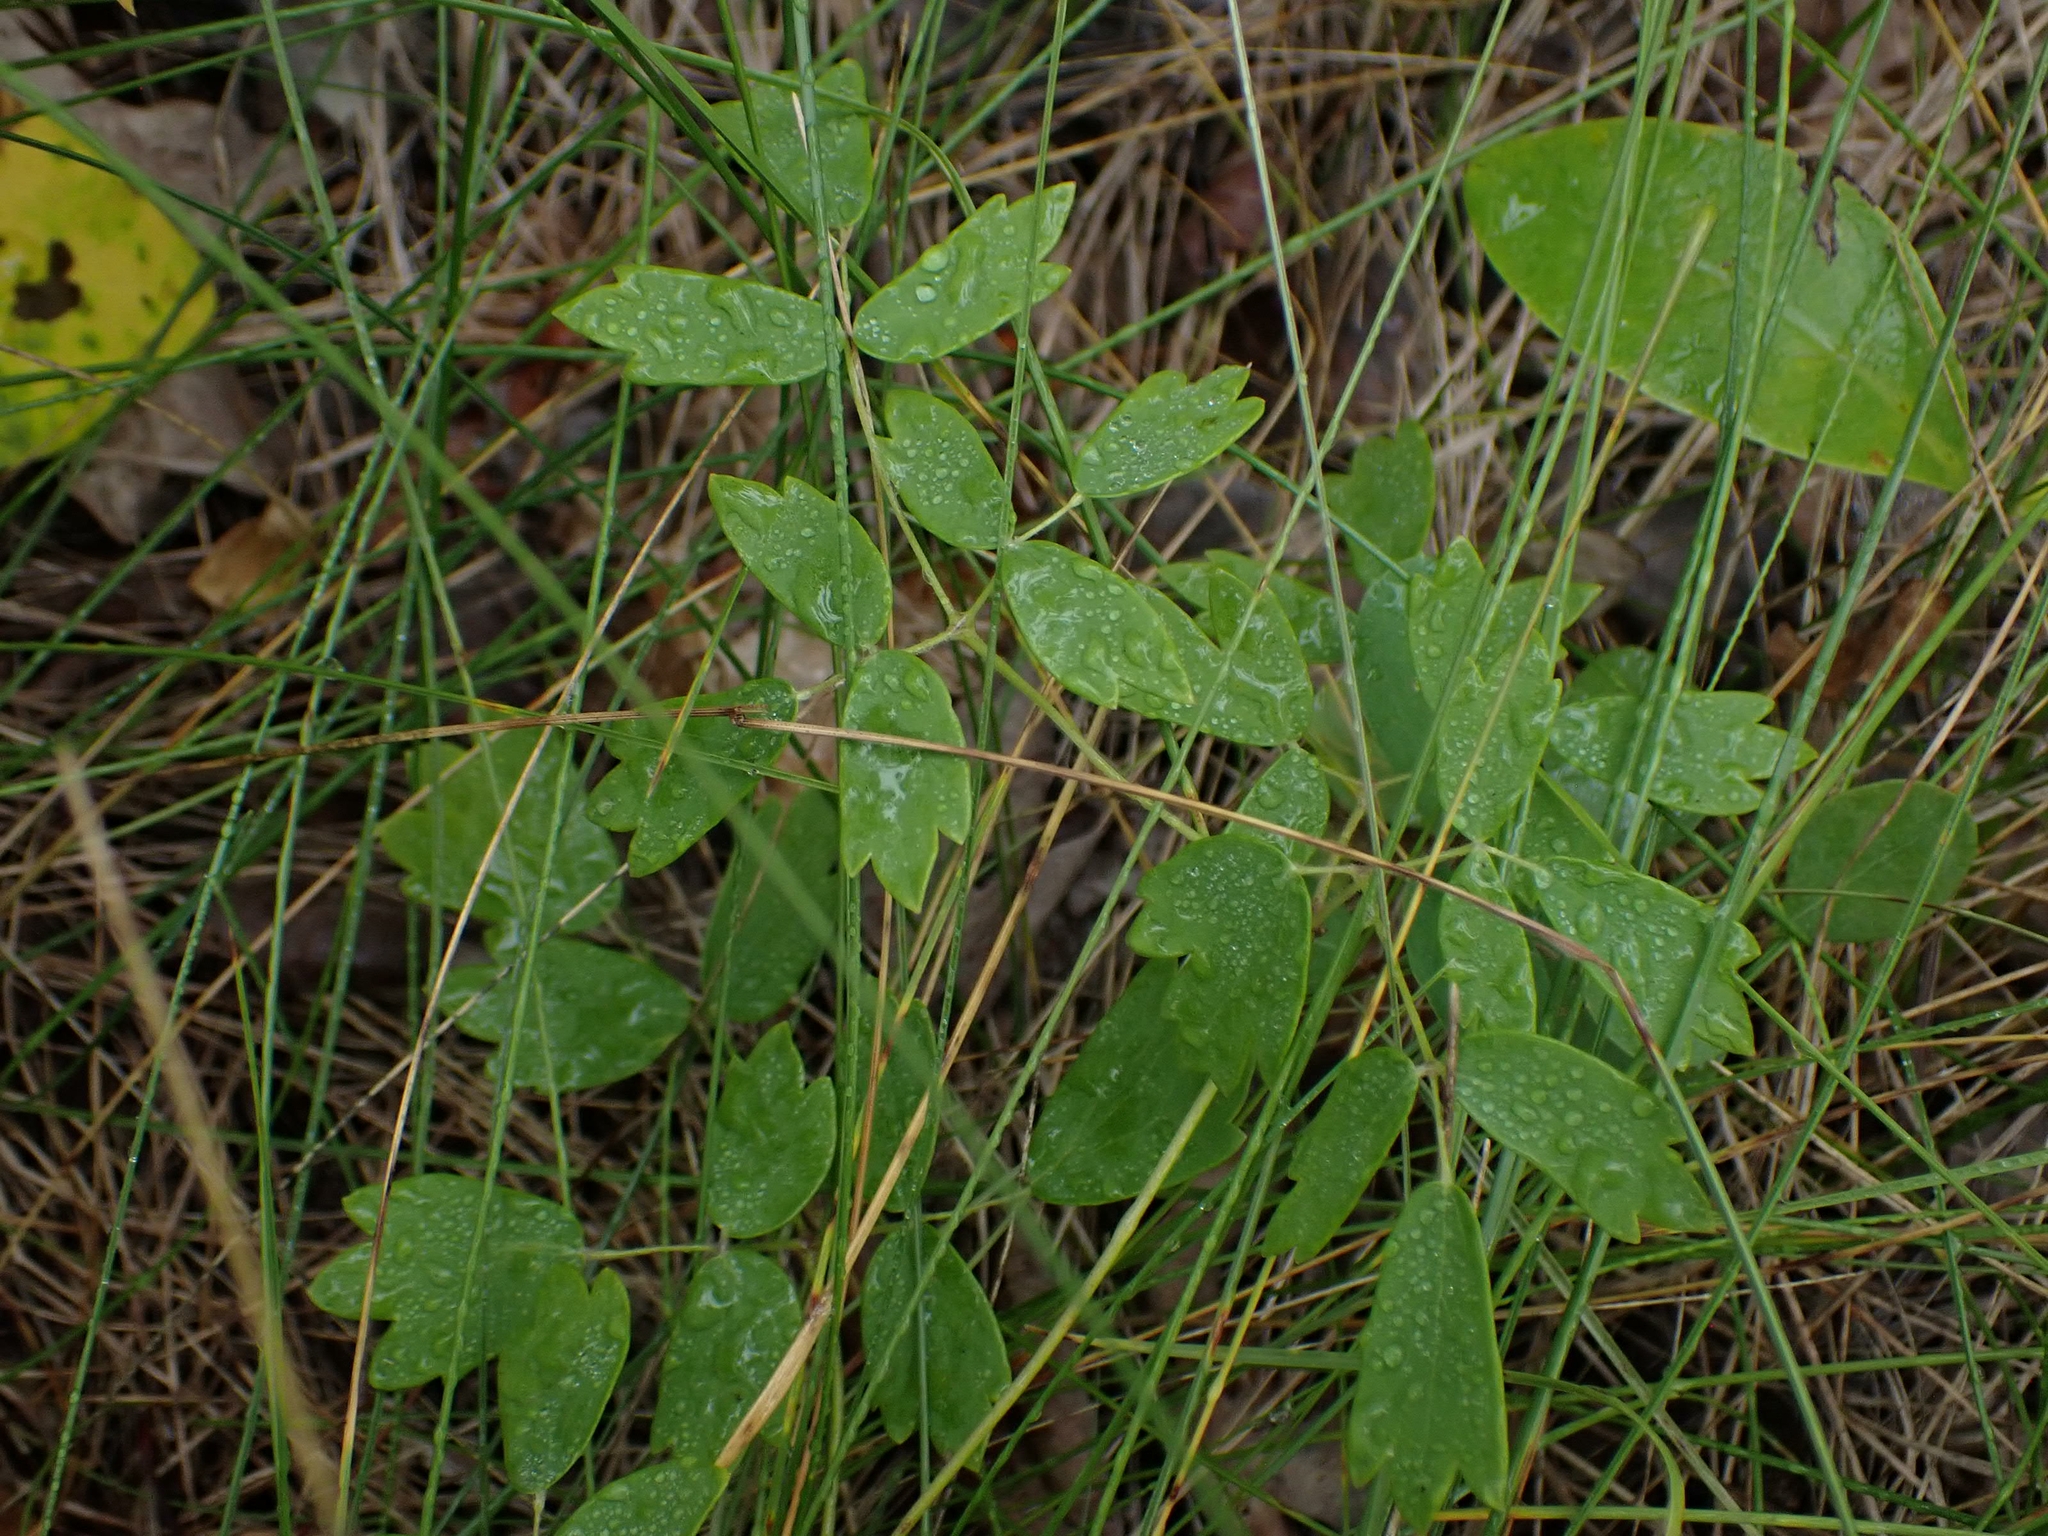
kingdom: Plantae
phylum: Tracheophyta
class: Magnoliopsida
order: Ranunculales
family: Ranunculaceae
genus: Thalictrum
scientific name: Thalictrum dasycarpum
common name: Purple meadow-rue
